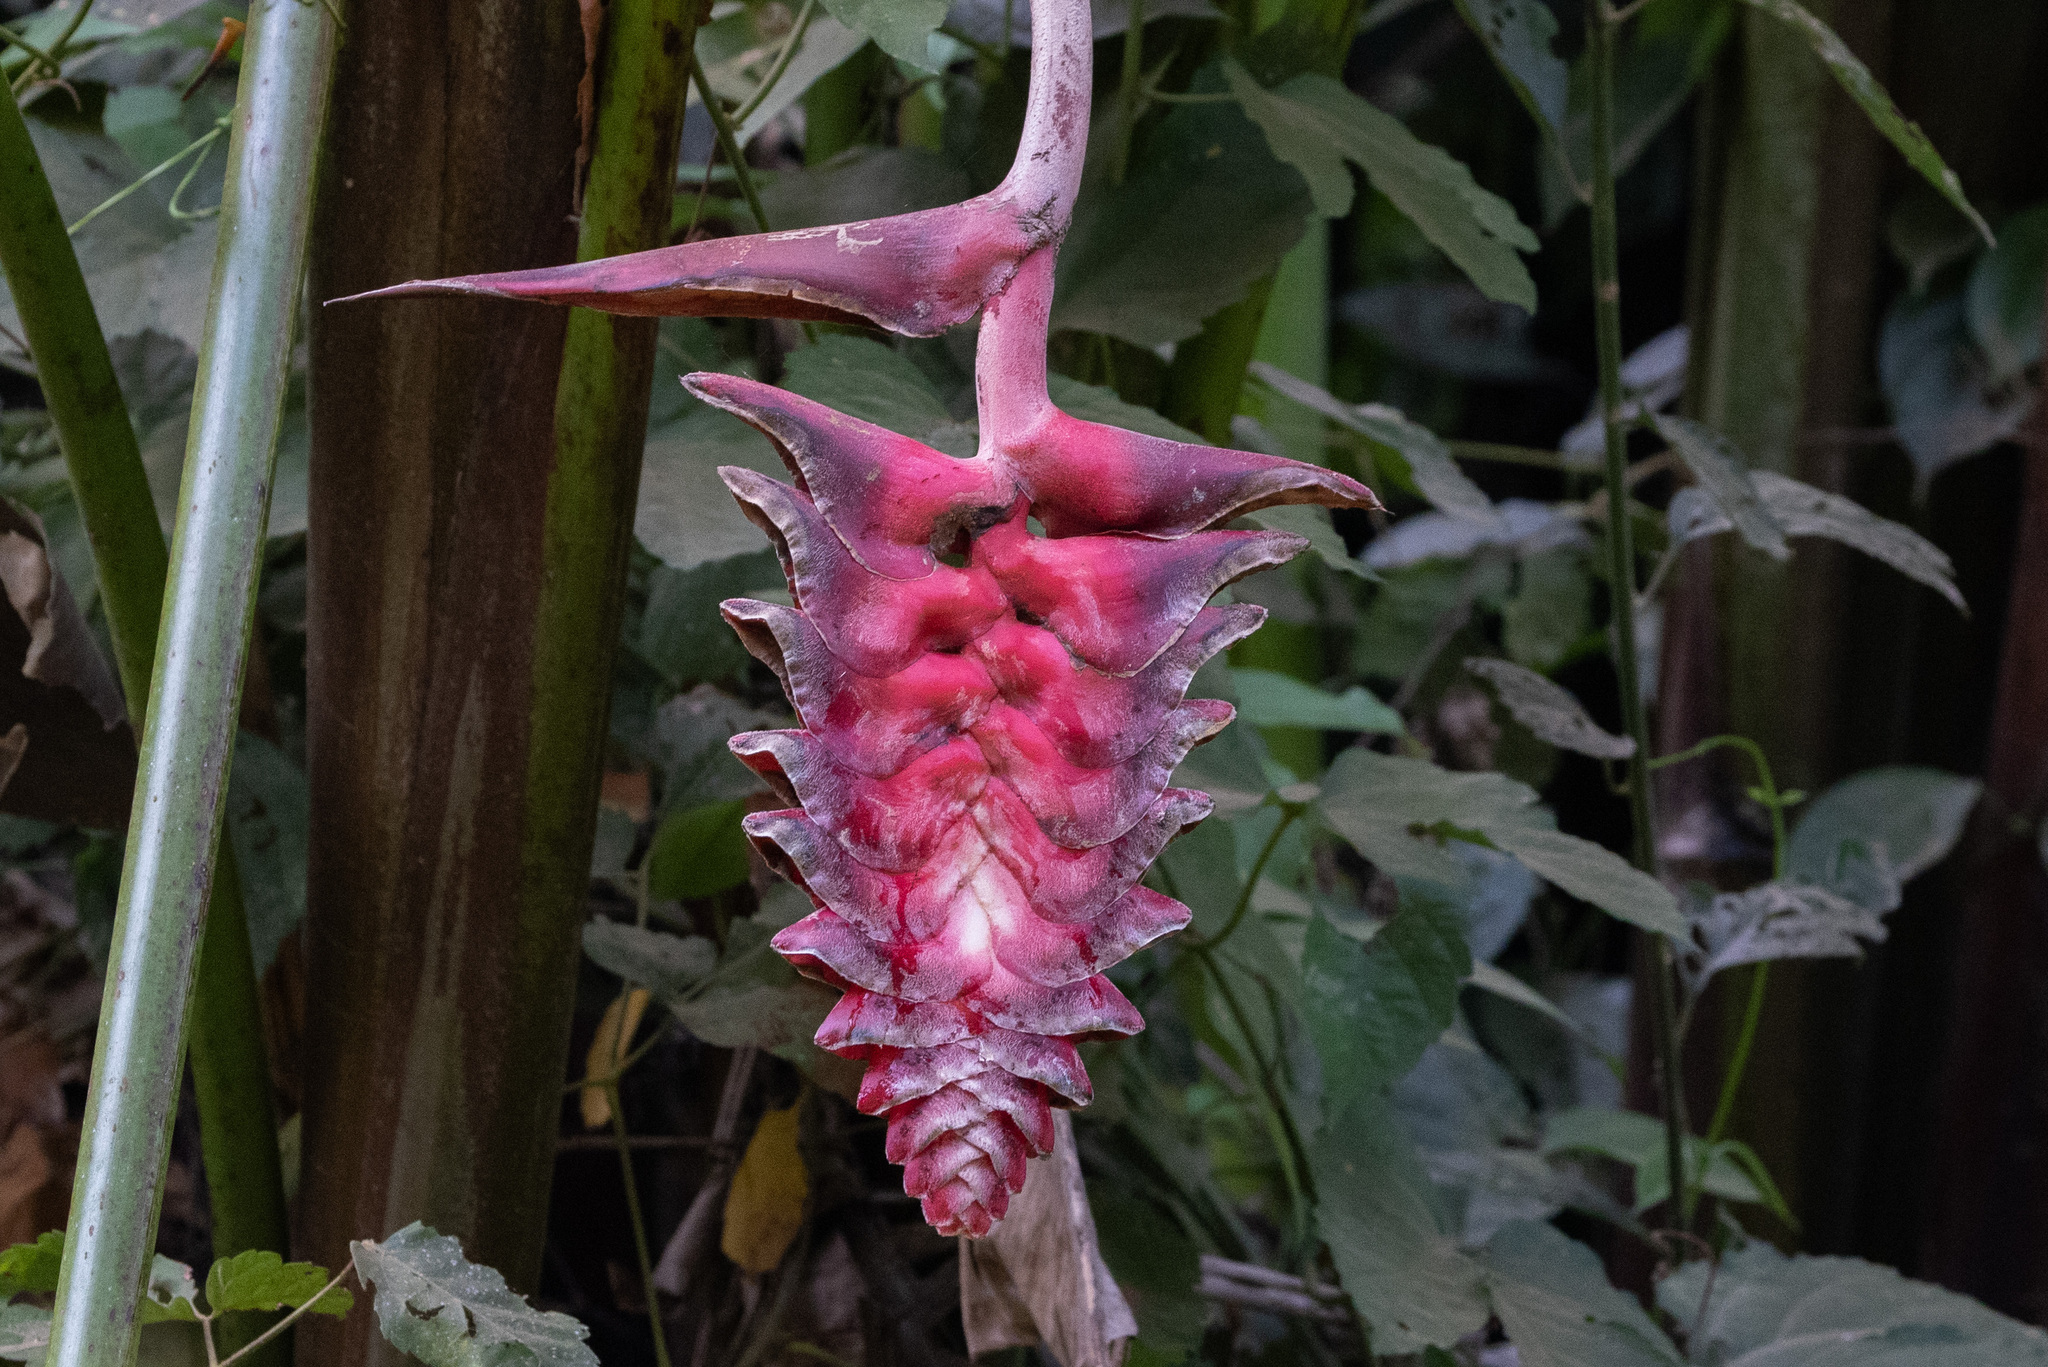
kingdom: Plantae
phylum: Tracheophyta
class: Liliopsida
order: Zingiberales
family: Heliconiaceae
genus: Heliconia
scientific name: Heliconia mariae
